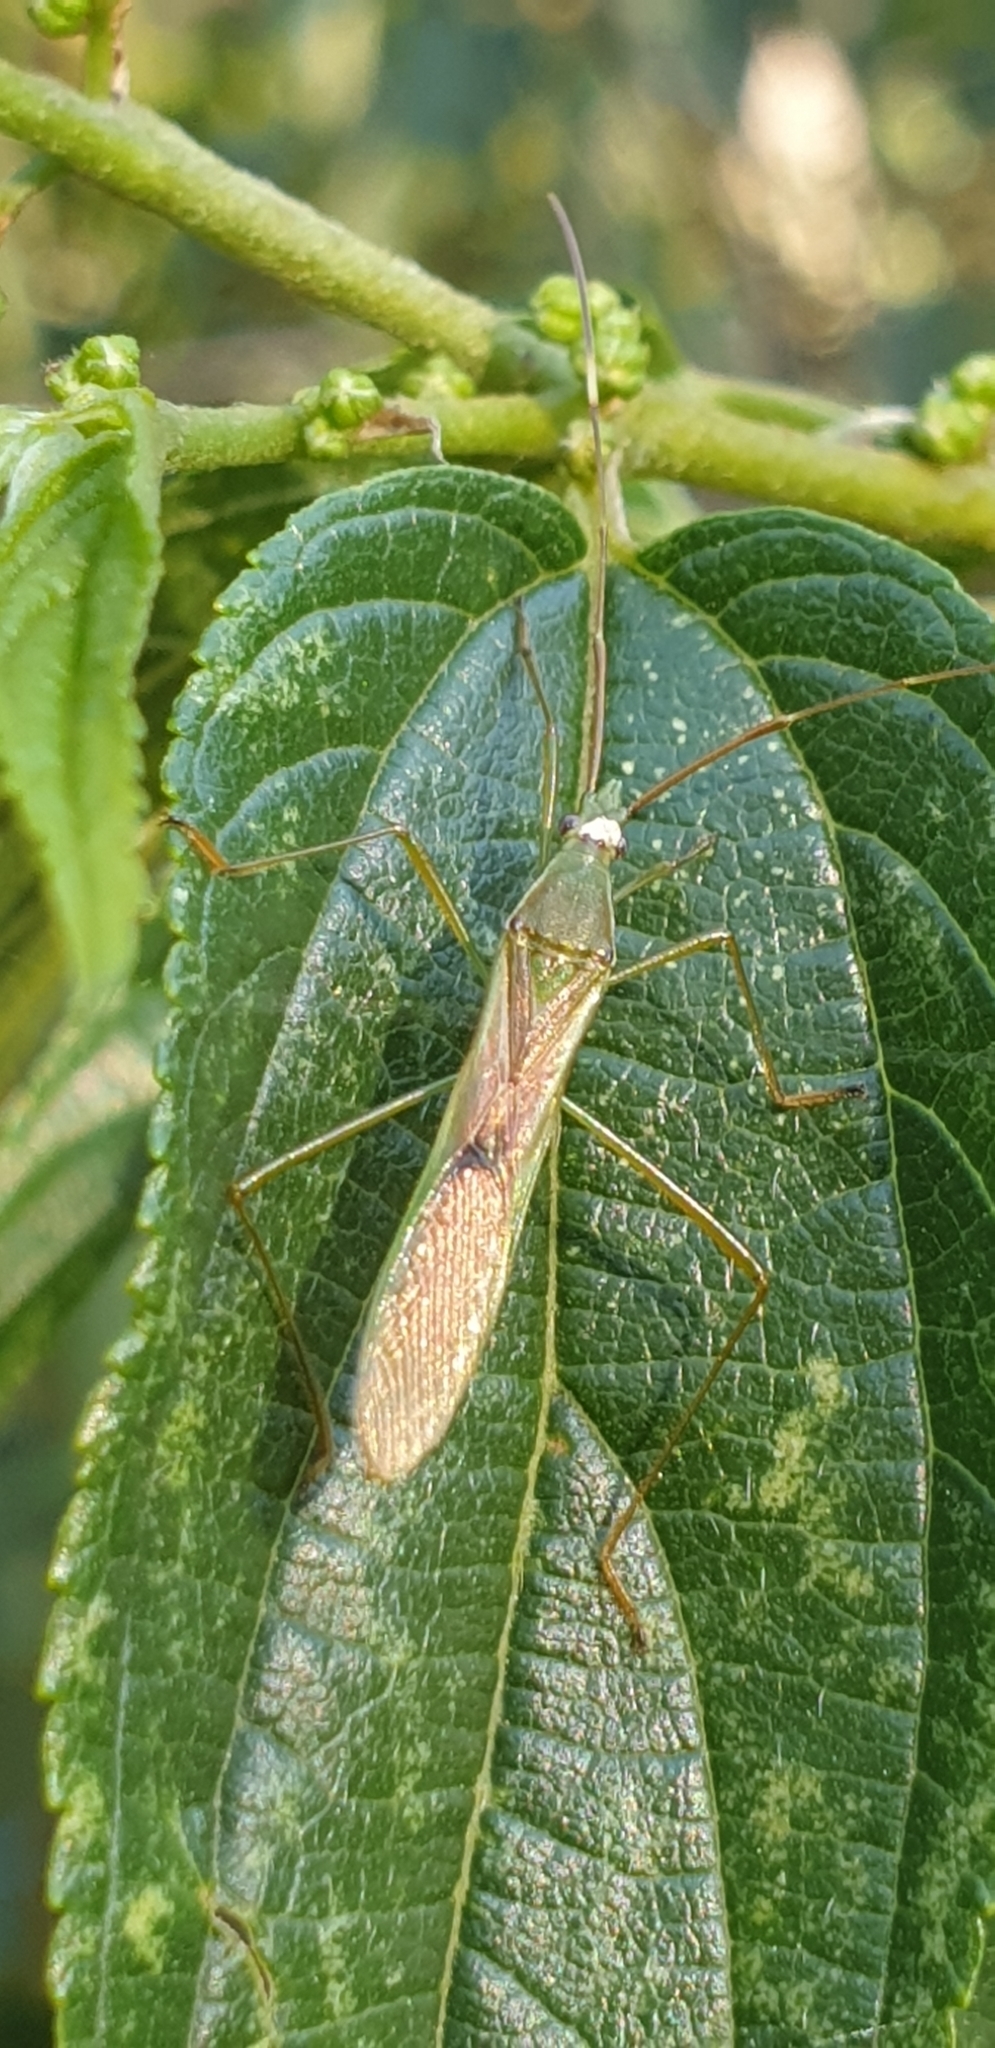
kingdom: Animalia
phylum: Arthropoda
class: Insecta
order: Hemiptera
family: Alydidae
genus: Leptocorisa
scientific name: Leptocorisa
